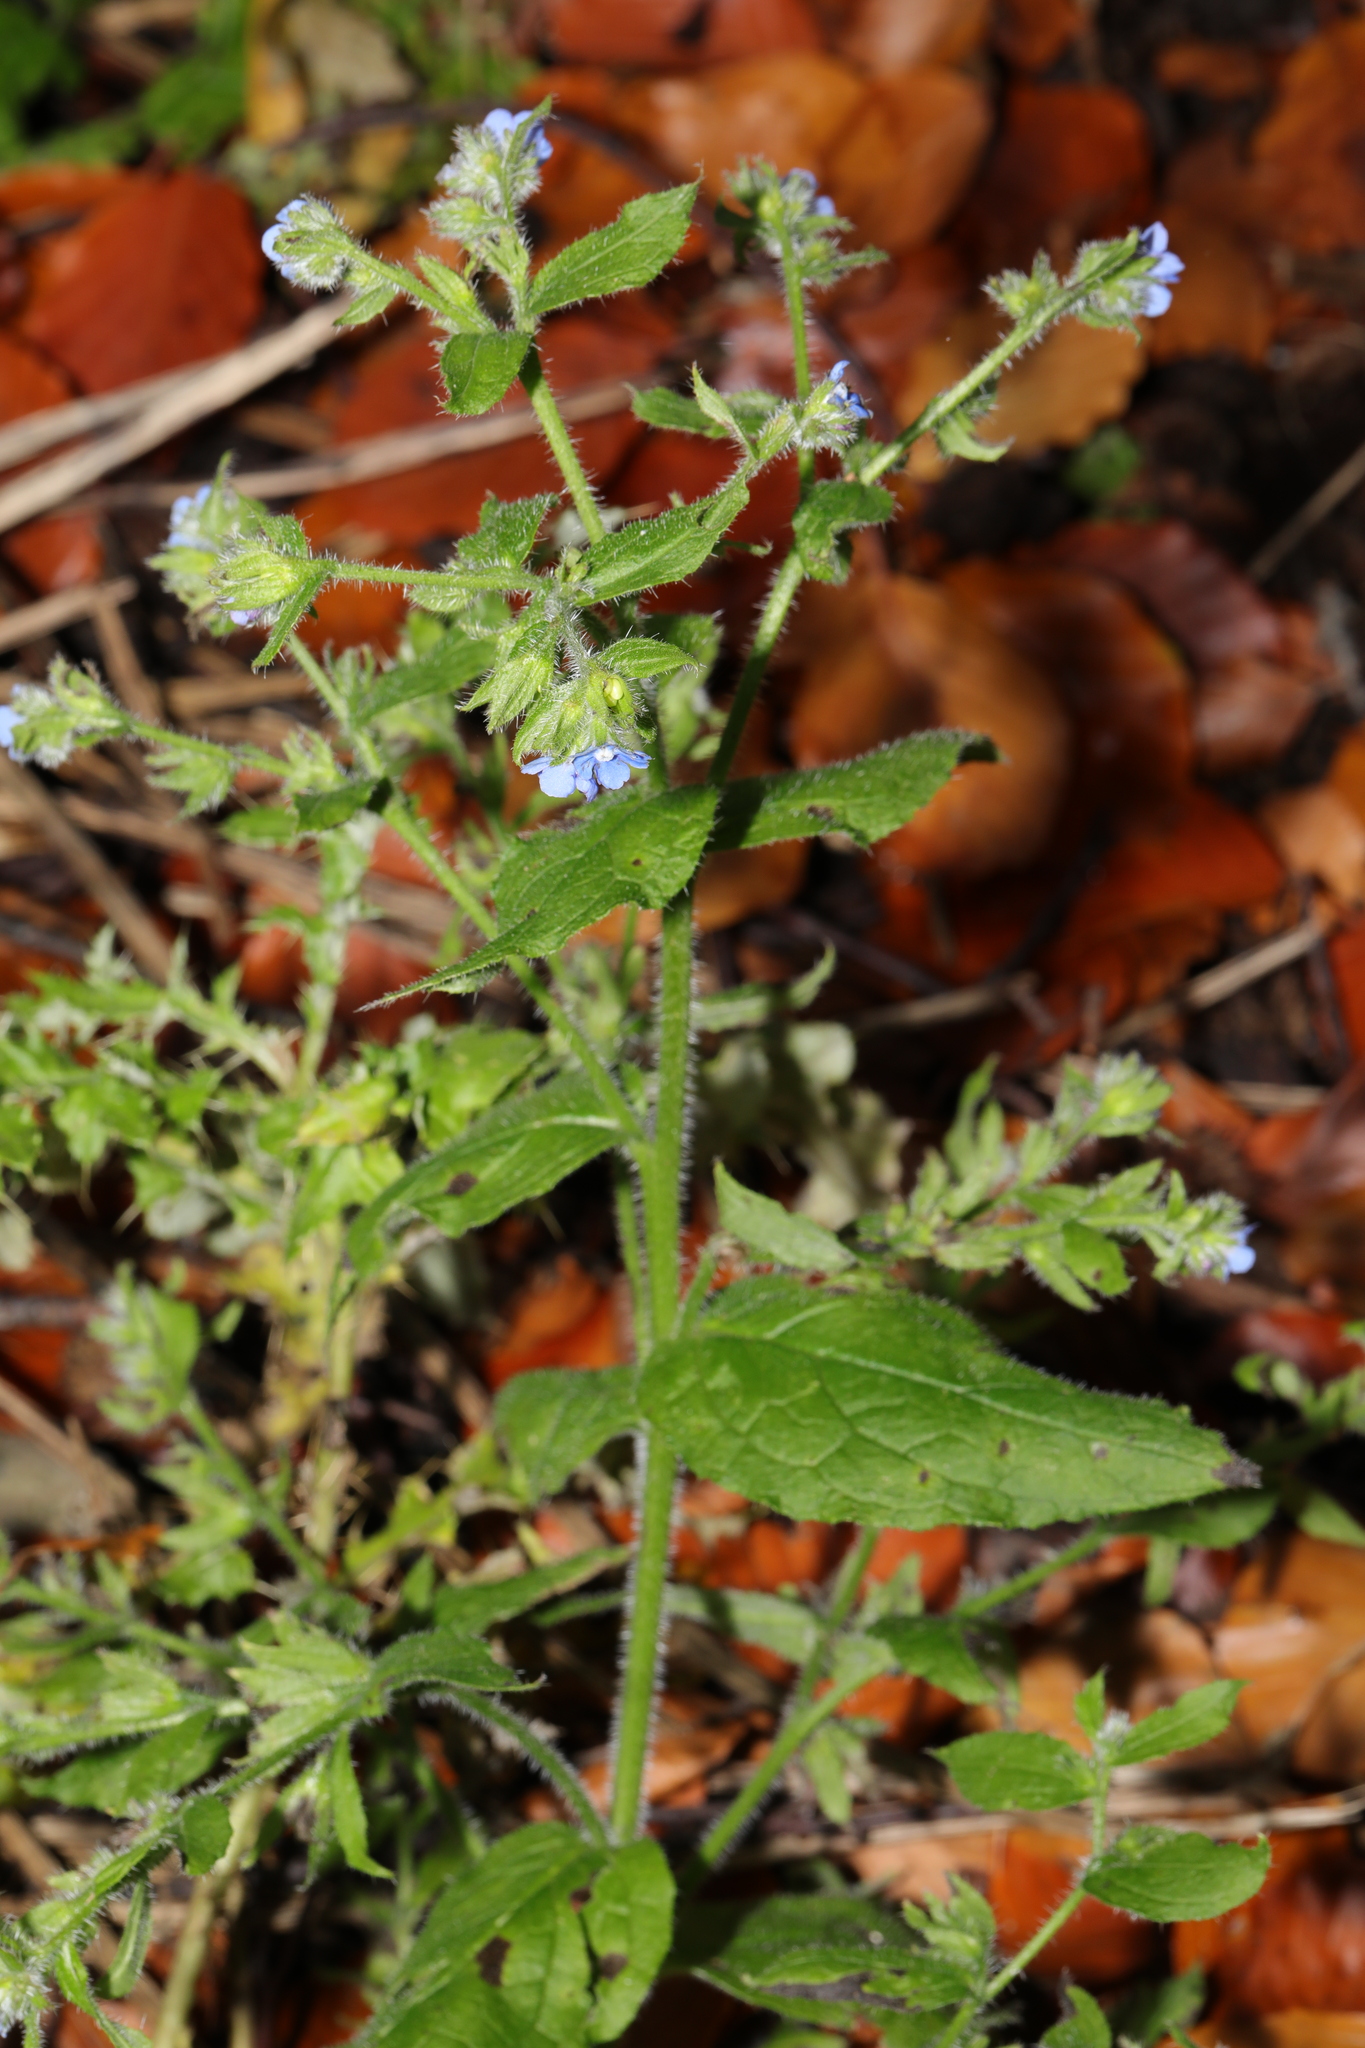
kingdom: Plantae
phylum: Tracheophyta
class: Magnoliopsida
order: Boraginales
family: Boraginaceae
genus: Pentaglottis
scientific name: Pentaglottis sempervirens
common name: Green alkanet
